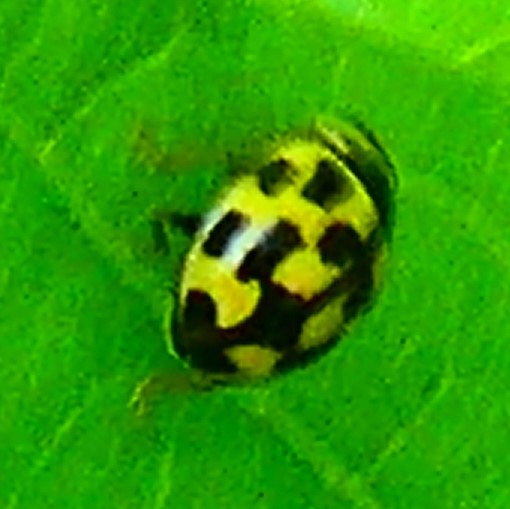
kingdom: Animalia
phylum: Arthropoda
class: Insecta
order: Coleoptera
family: Coccinellidae
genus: Propylaea
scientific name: Propylaea quatuordecimpunctata
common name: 14-spotted ladybird beetle
